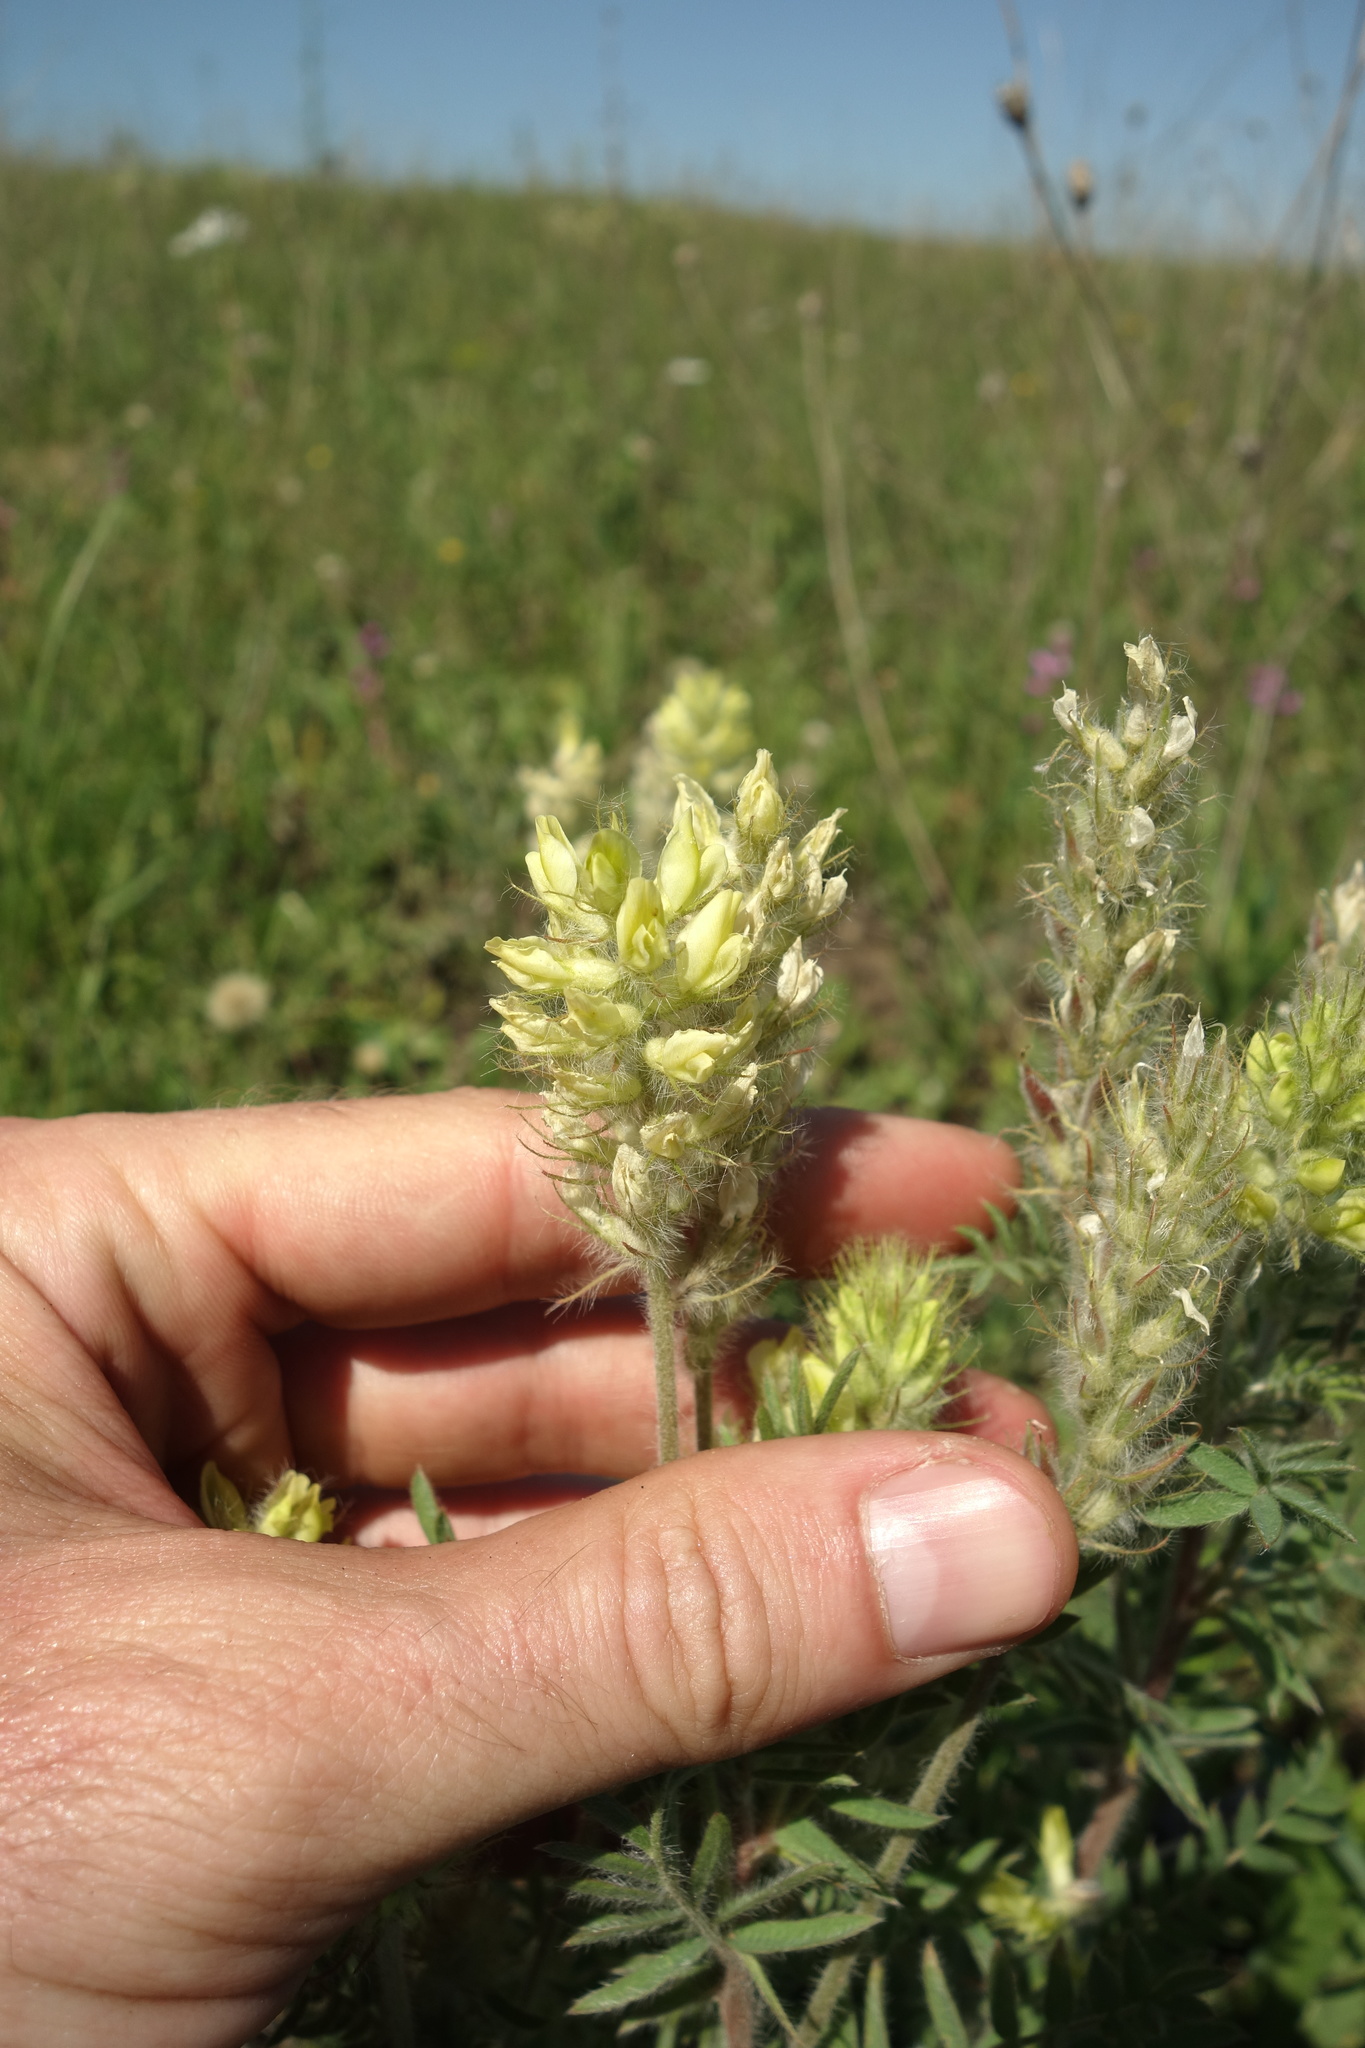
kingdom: Plantae
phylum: Tracheophyta
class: Magnoliopsida
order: Fabales
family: Fabaceae
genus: Oxytropis
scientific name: Oxytropis pilosa
